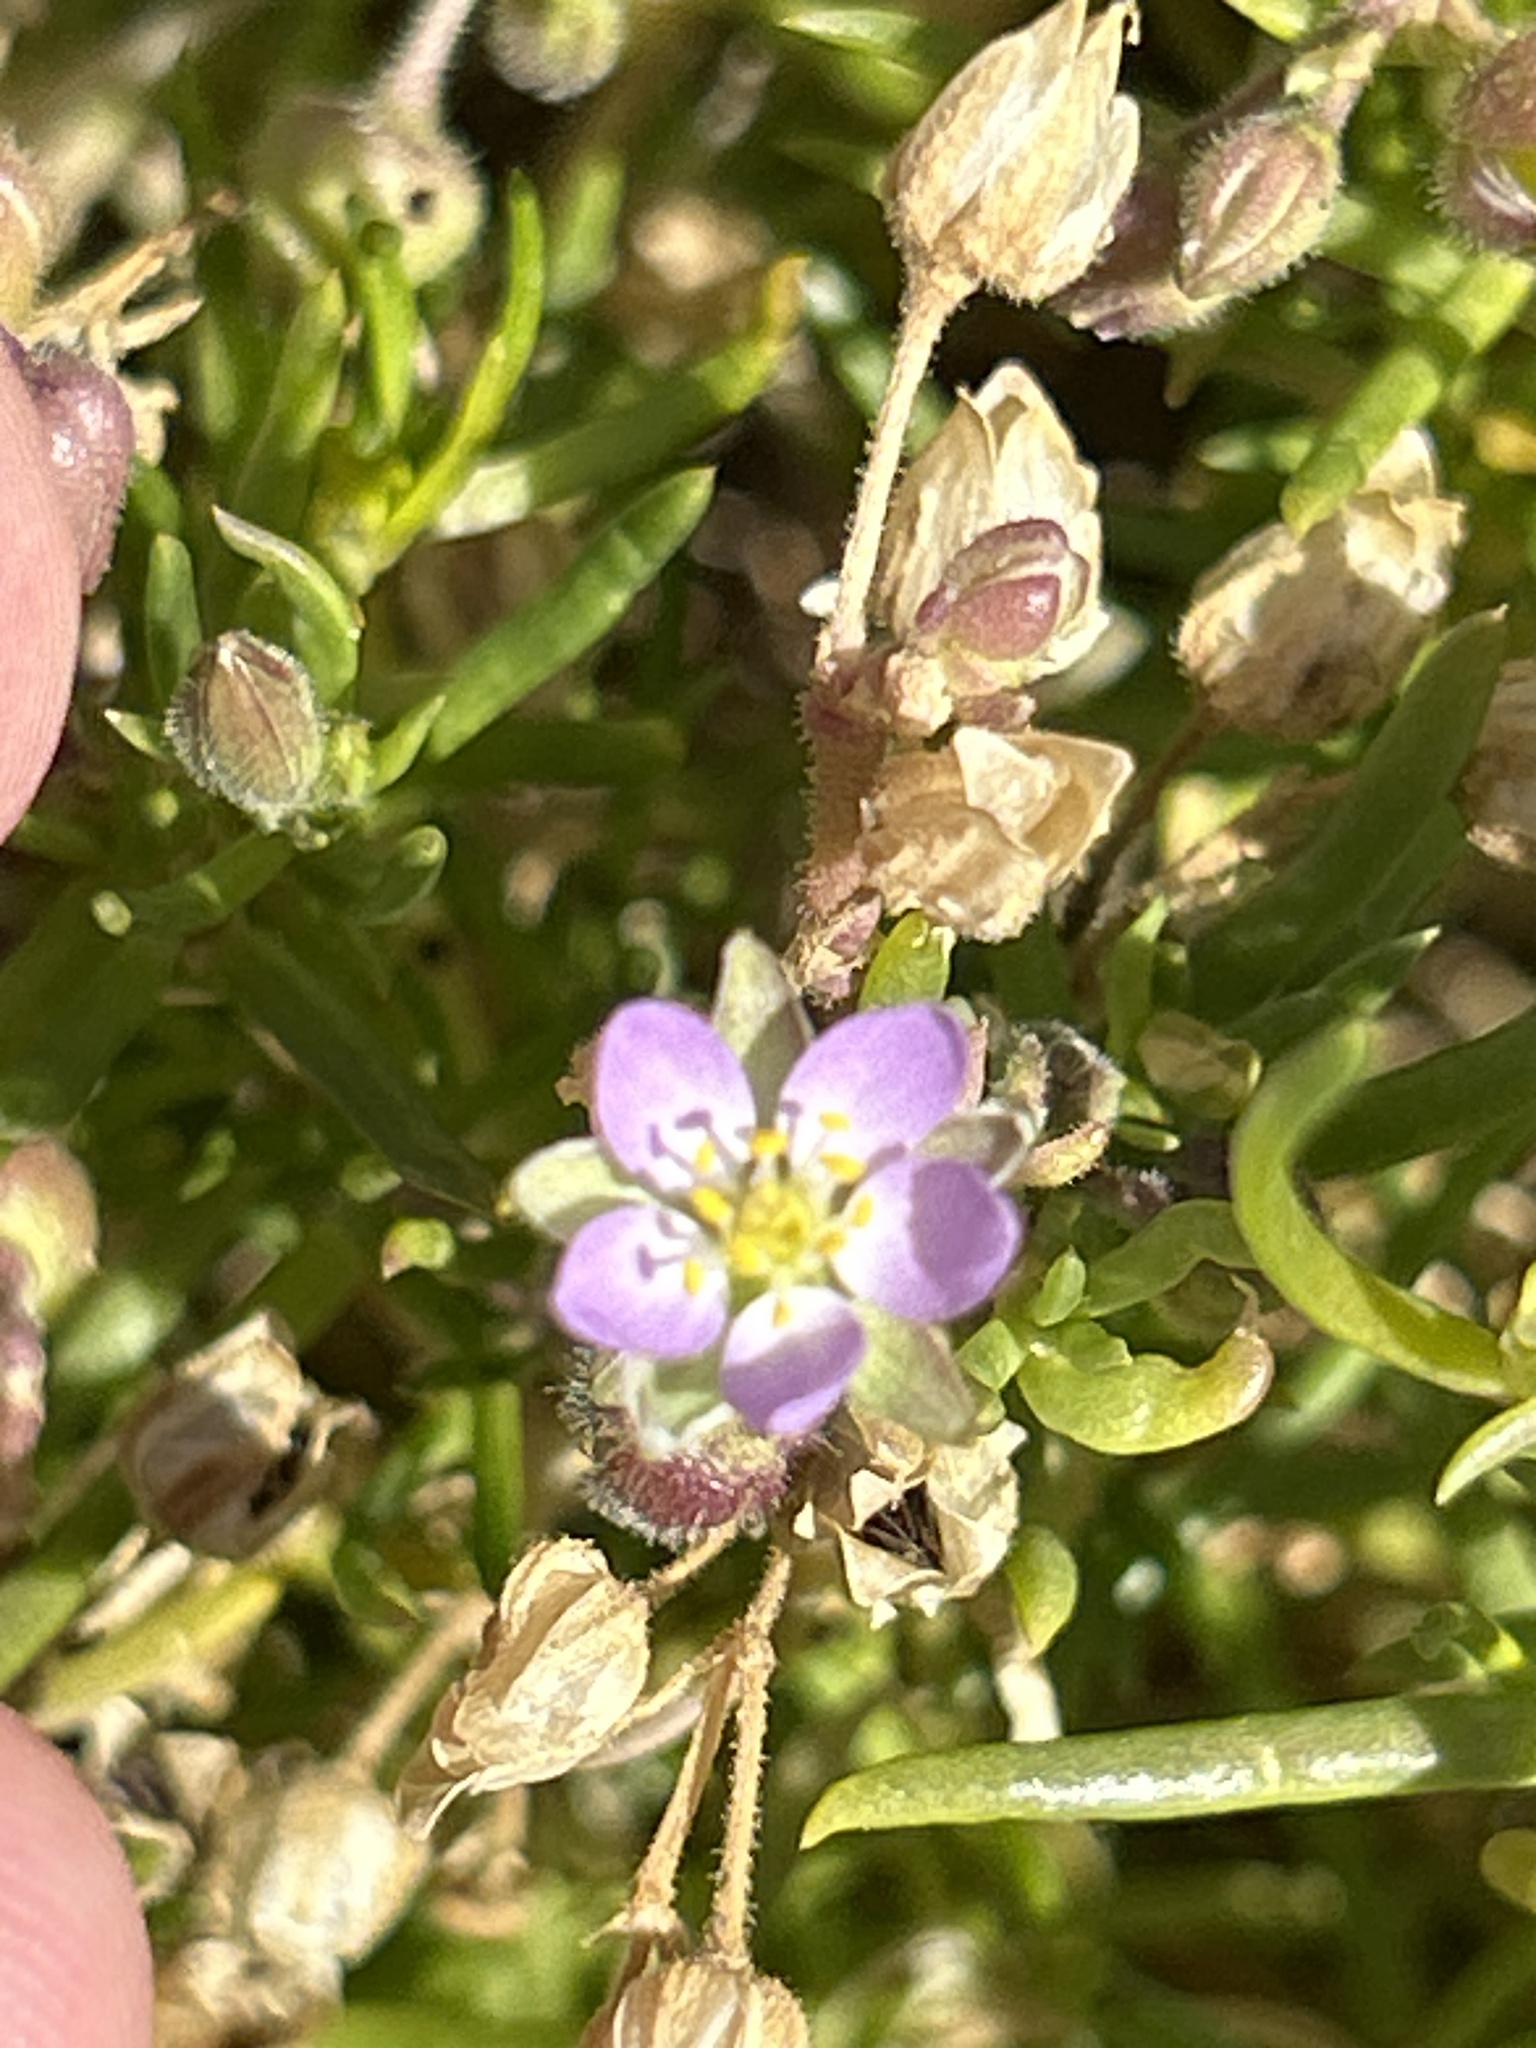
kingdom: Plantae
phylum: Tracheophyta
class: Magnoliopsida
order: Caryophyllales
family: Caryophyllaceae
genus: Spergularia
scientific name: Spergularia rubra
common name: Red sand-spurrey
